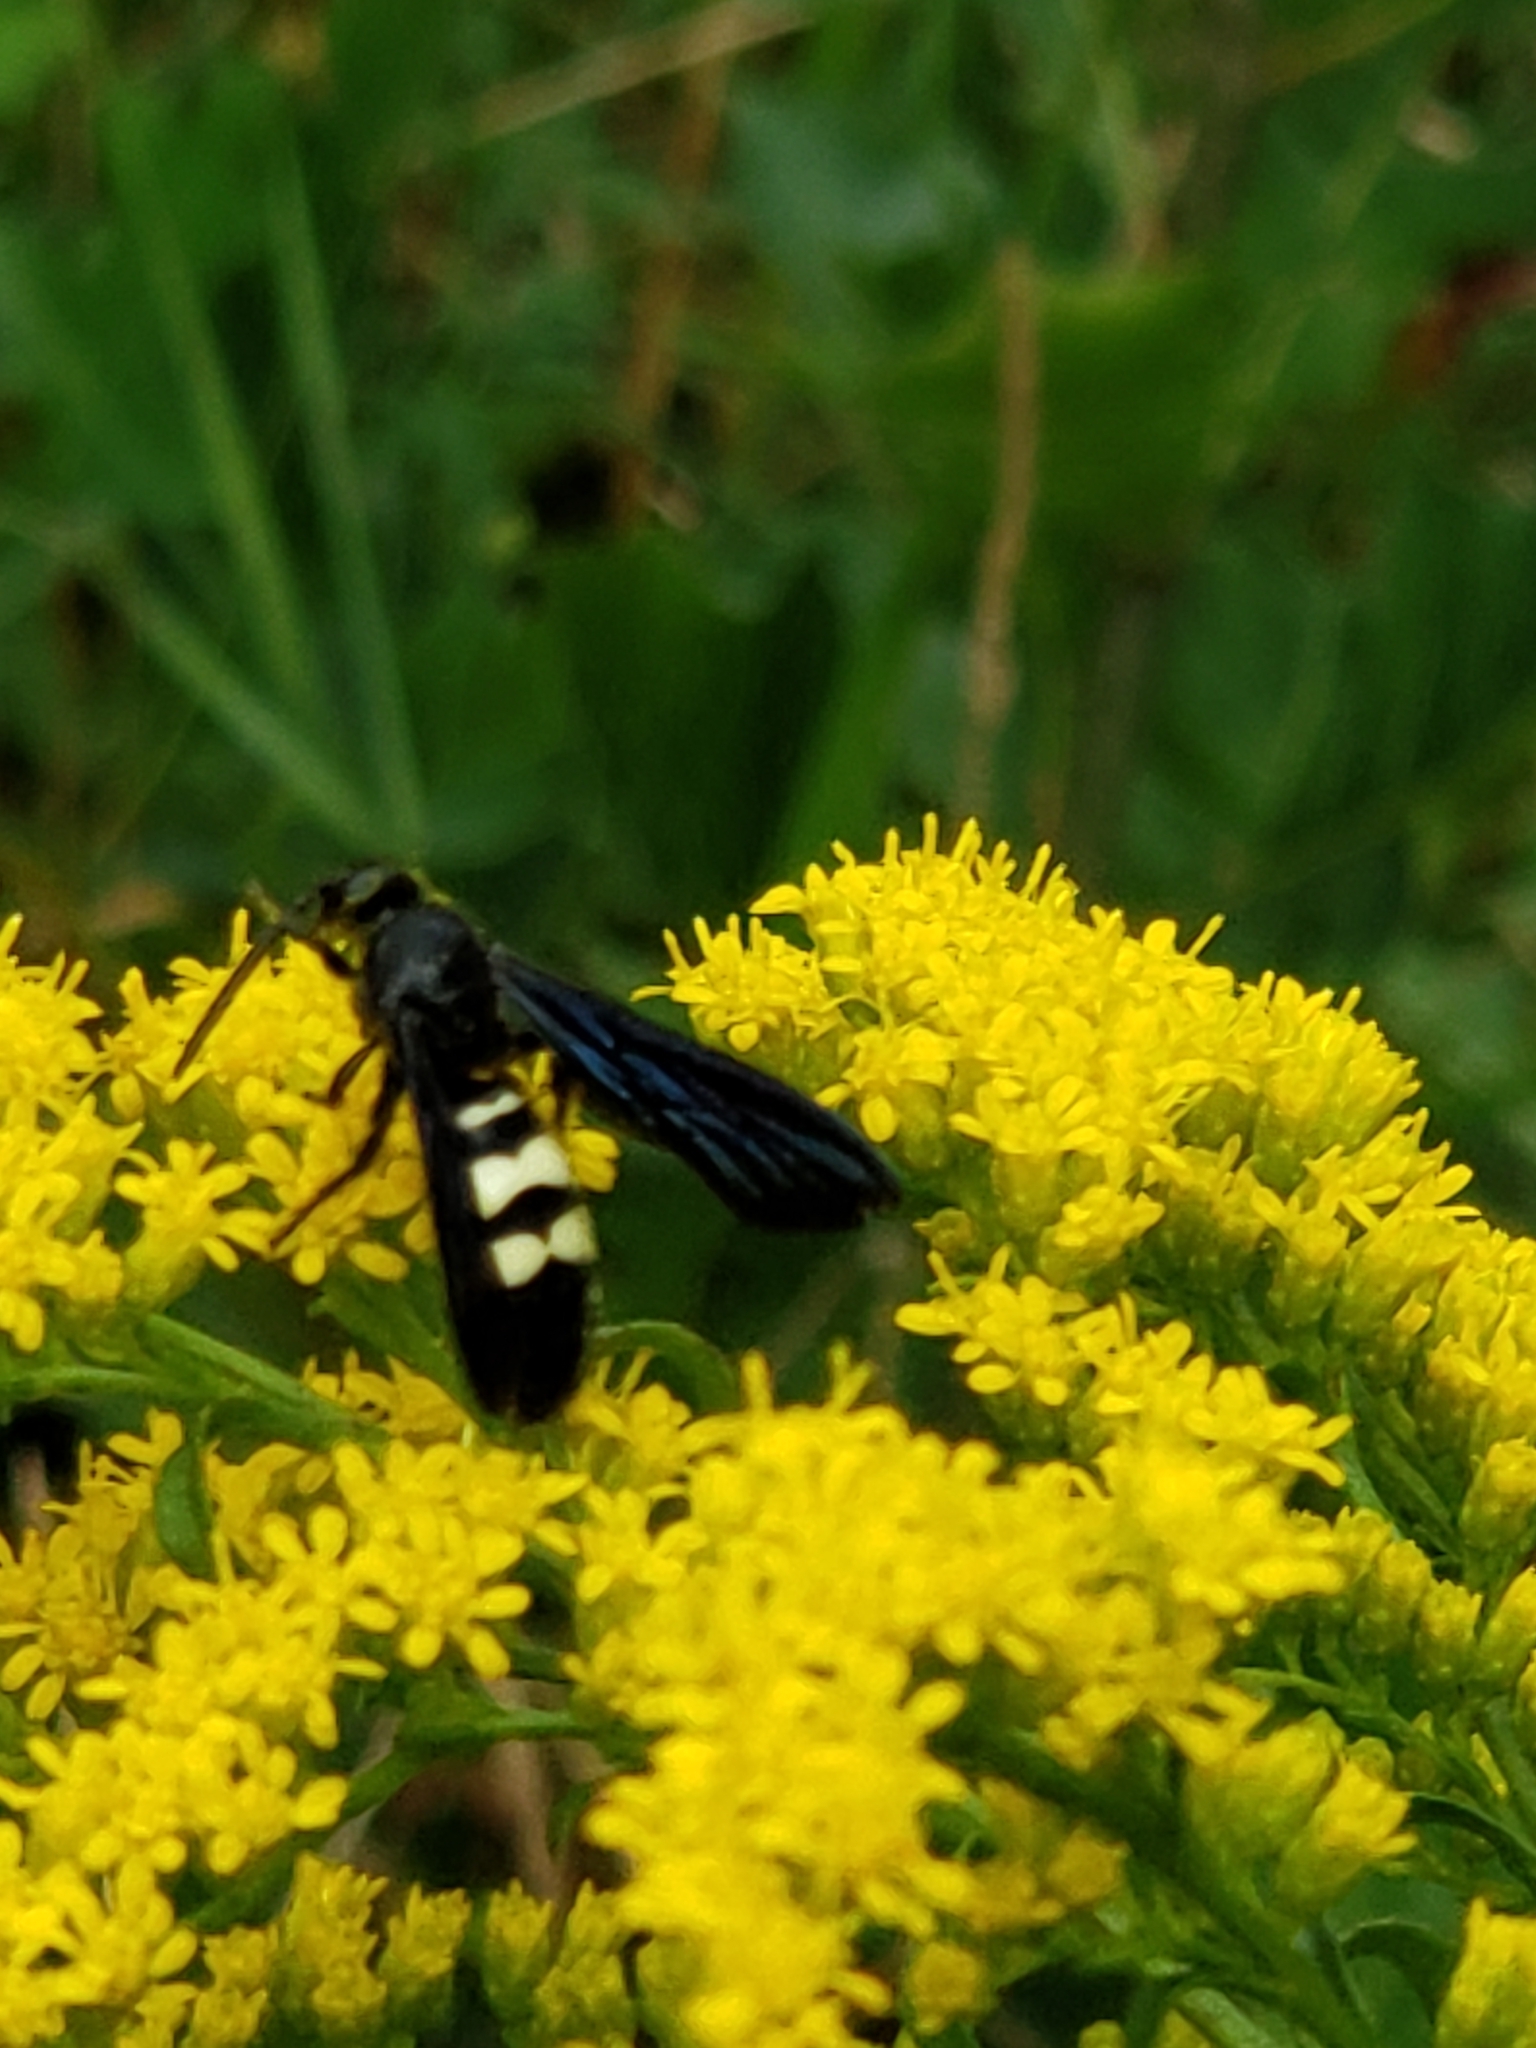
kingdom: Animalia
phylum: Arthropoda
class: Insecta
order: Hymenoptera
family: Scoliidae
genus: Scolia
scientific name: Scolia bicincta
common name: Double-banded scoliid wasp
